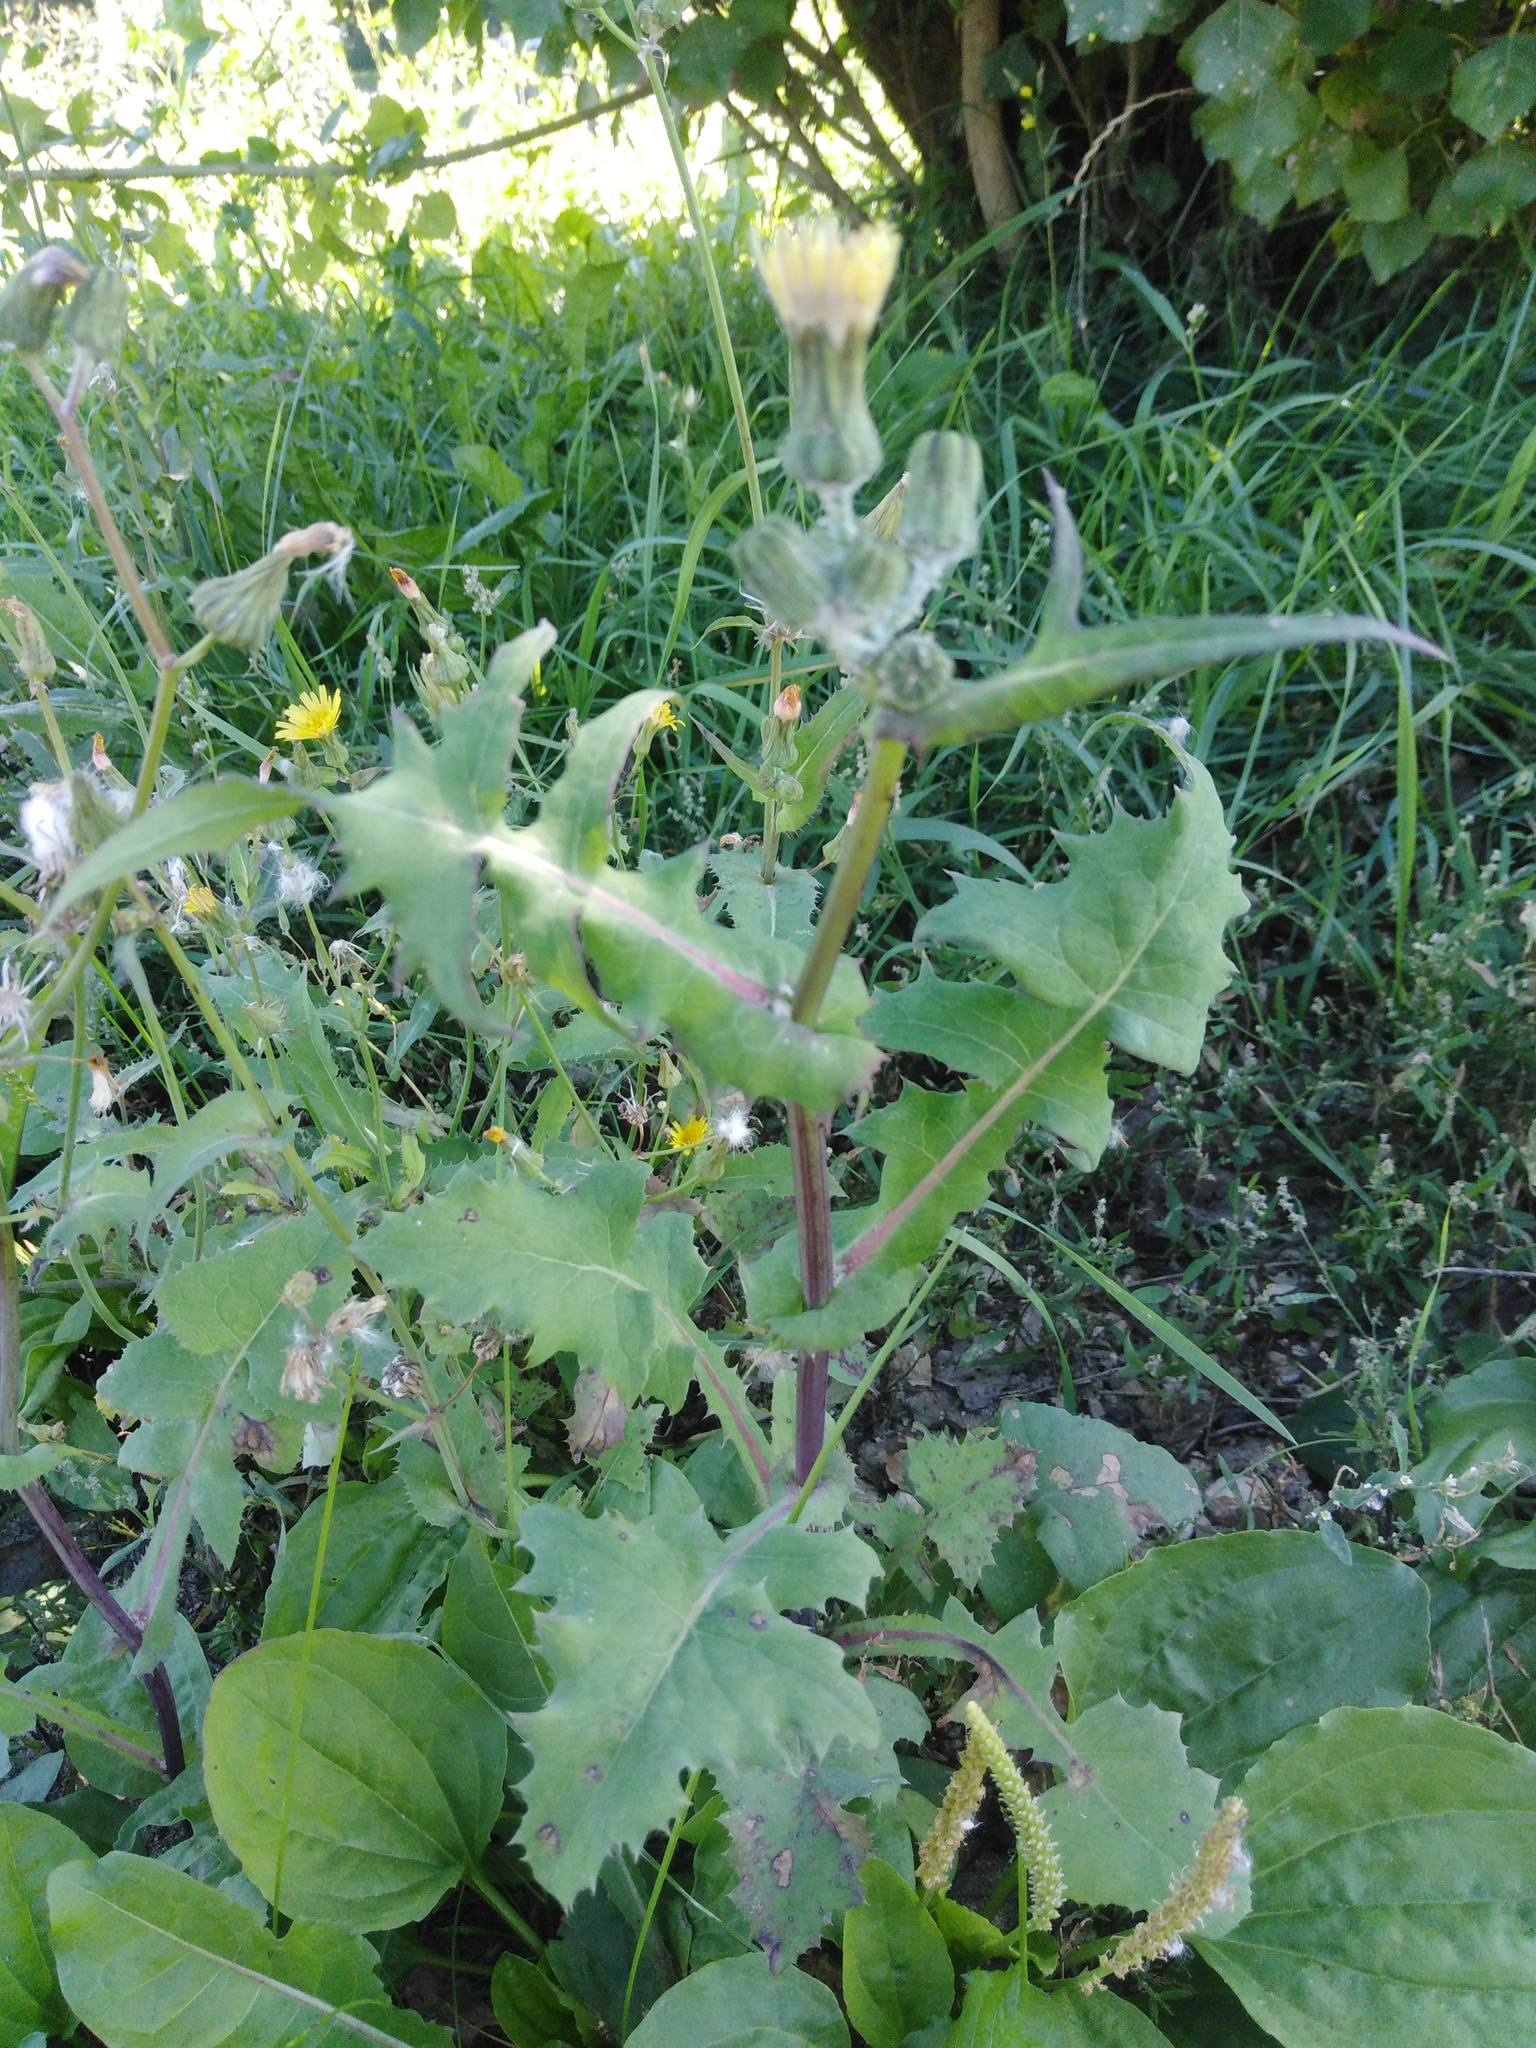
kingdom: Plantae
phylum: Tracheophyta
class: Magnoliopsida
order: Asterales
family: Asteraceae
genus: Sonchus
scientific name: Sonchus oleraceus
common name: Common sowthistle
